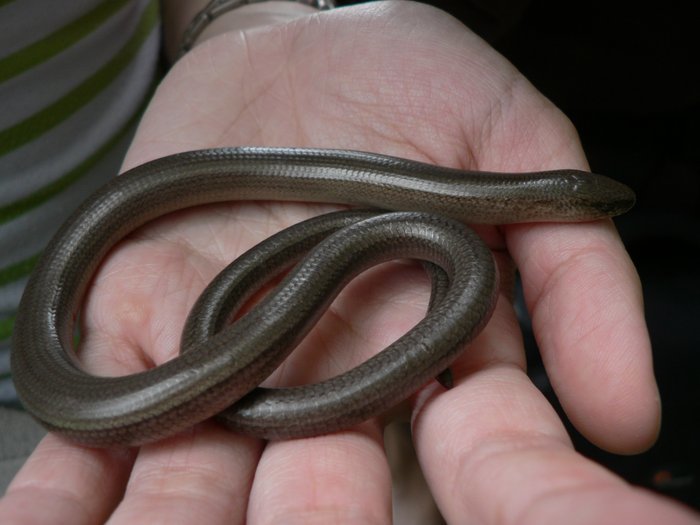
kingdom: Animalia
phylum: Chordata
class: Squamata
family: Anguidae
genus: Anguis
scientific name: Anguis fragilis
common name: Slow worm
